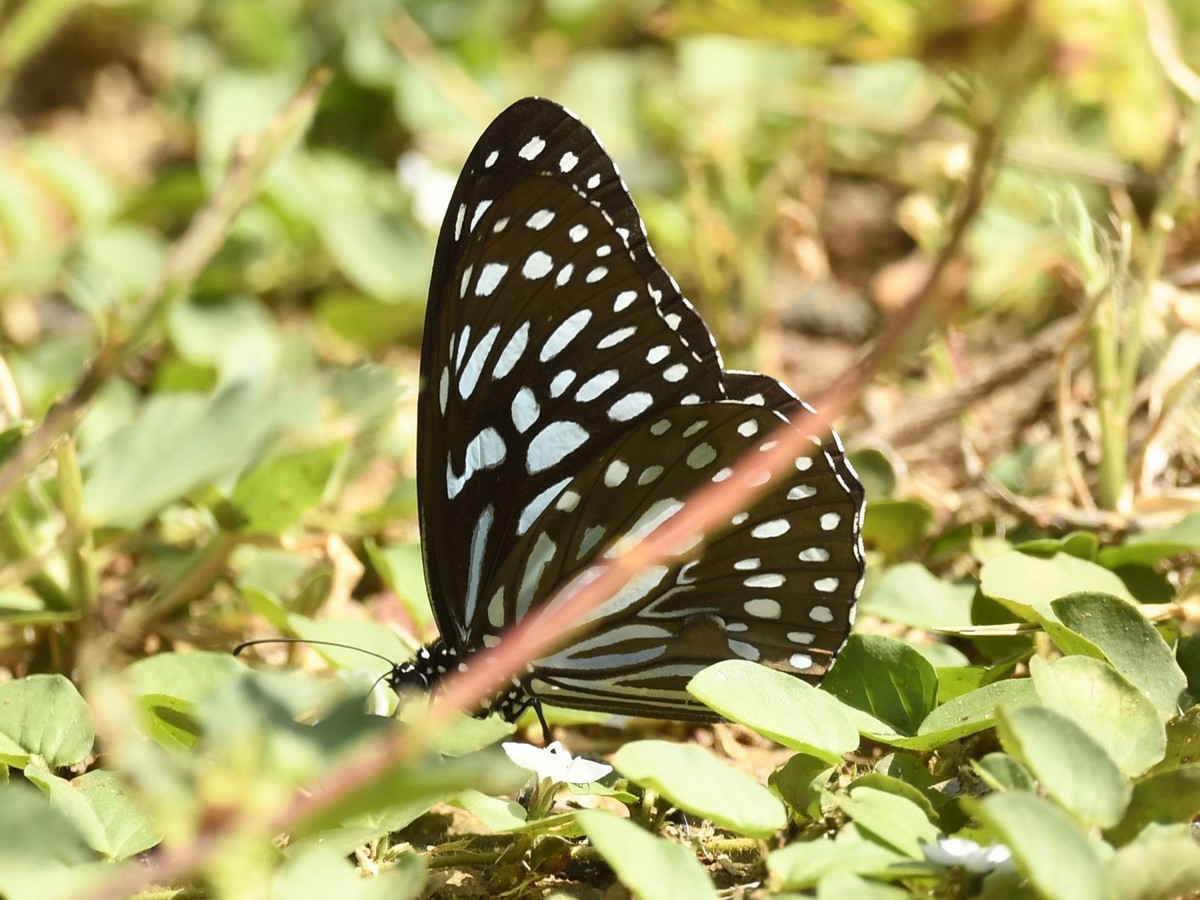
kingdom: Animalia
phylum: Arthropoda
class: Insecta
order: Lepidoptera
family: Nymphalidae
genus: Tirumala
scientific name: Tirumala septentrionis
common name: Dark blue tiger butterfly
